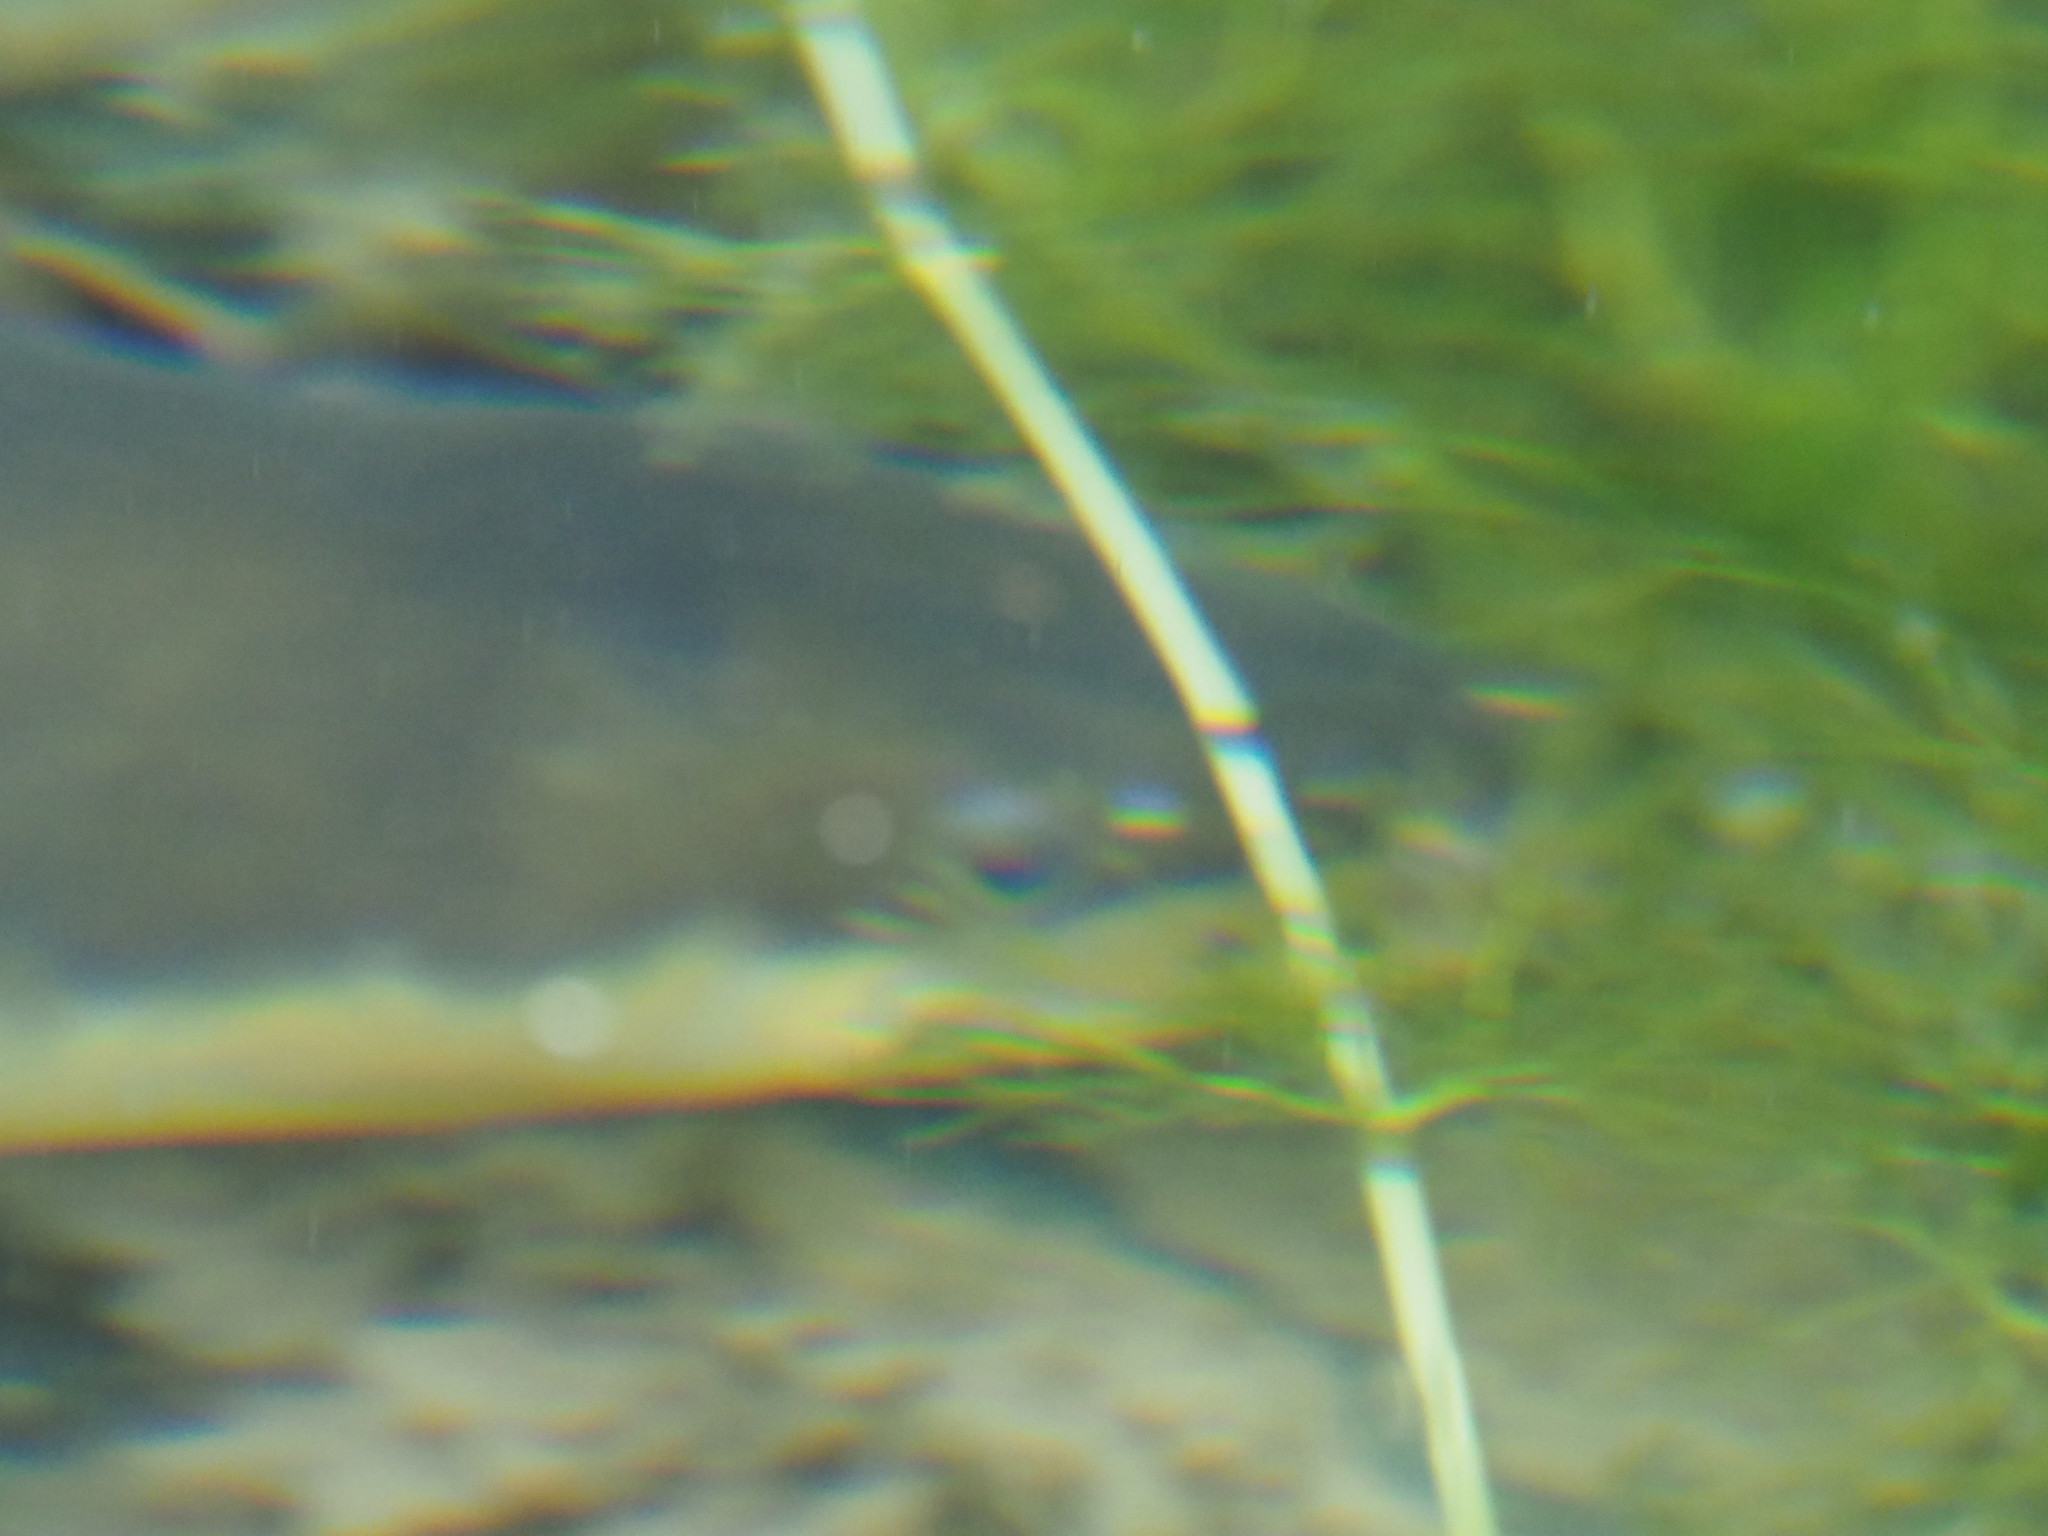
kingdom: Animalia
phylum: Chordata
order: Anguilliformes
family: Anguillidae
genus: Anguilla
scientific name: Anguilla dieffenbachii
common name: New zealand longfin eel
